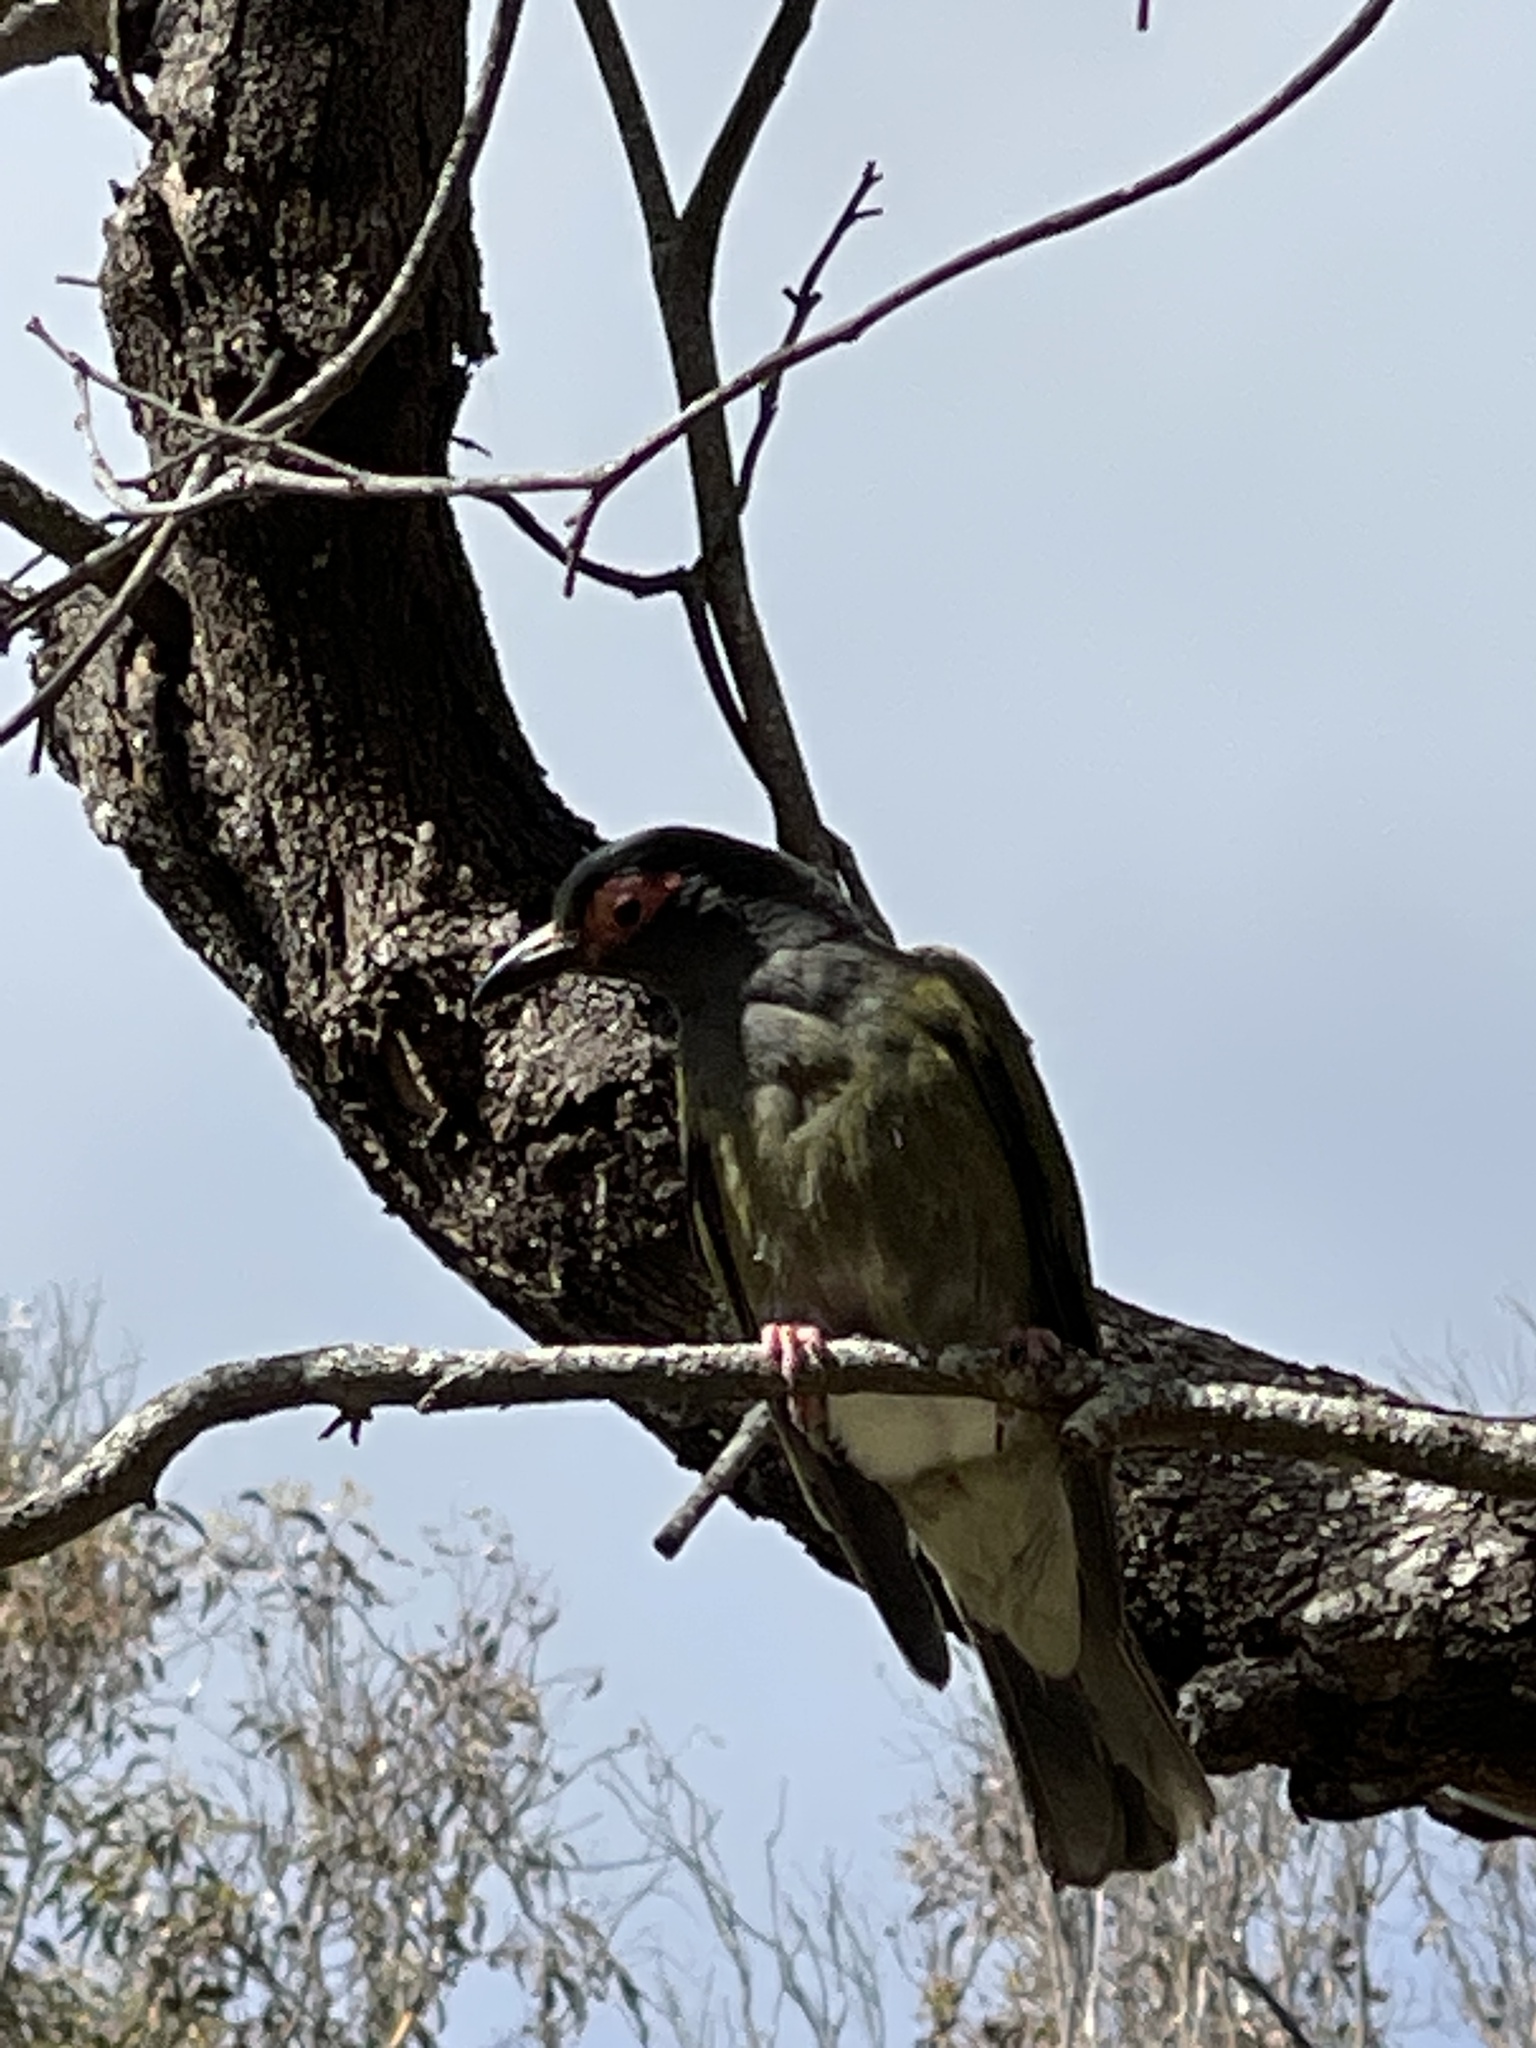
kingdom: Animalia
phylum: Chordata
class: Aves
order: Passeriformes
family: Oriolidae
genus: Sphecotheres
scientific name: Sphecotheres vieilloti
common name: Australasian figbird
